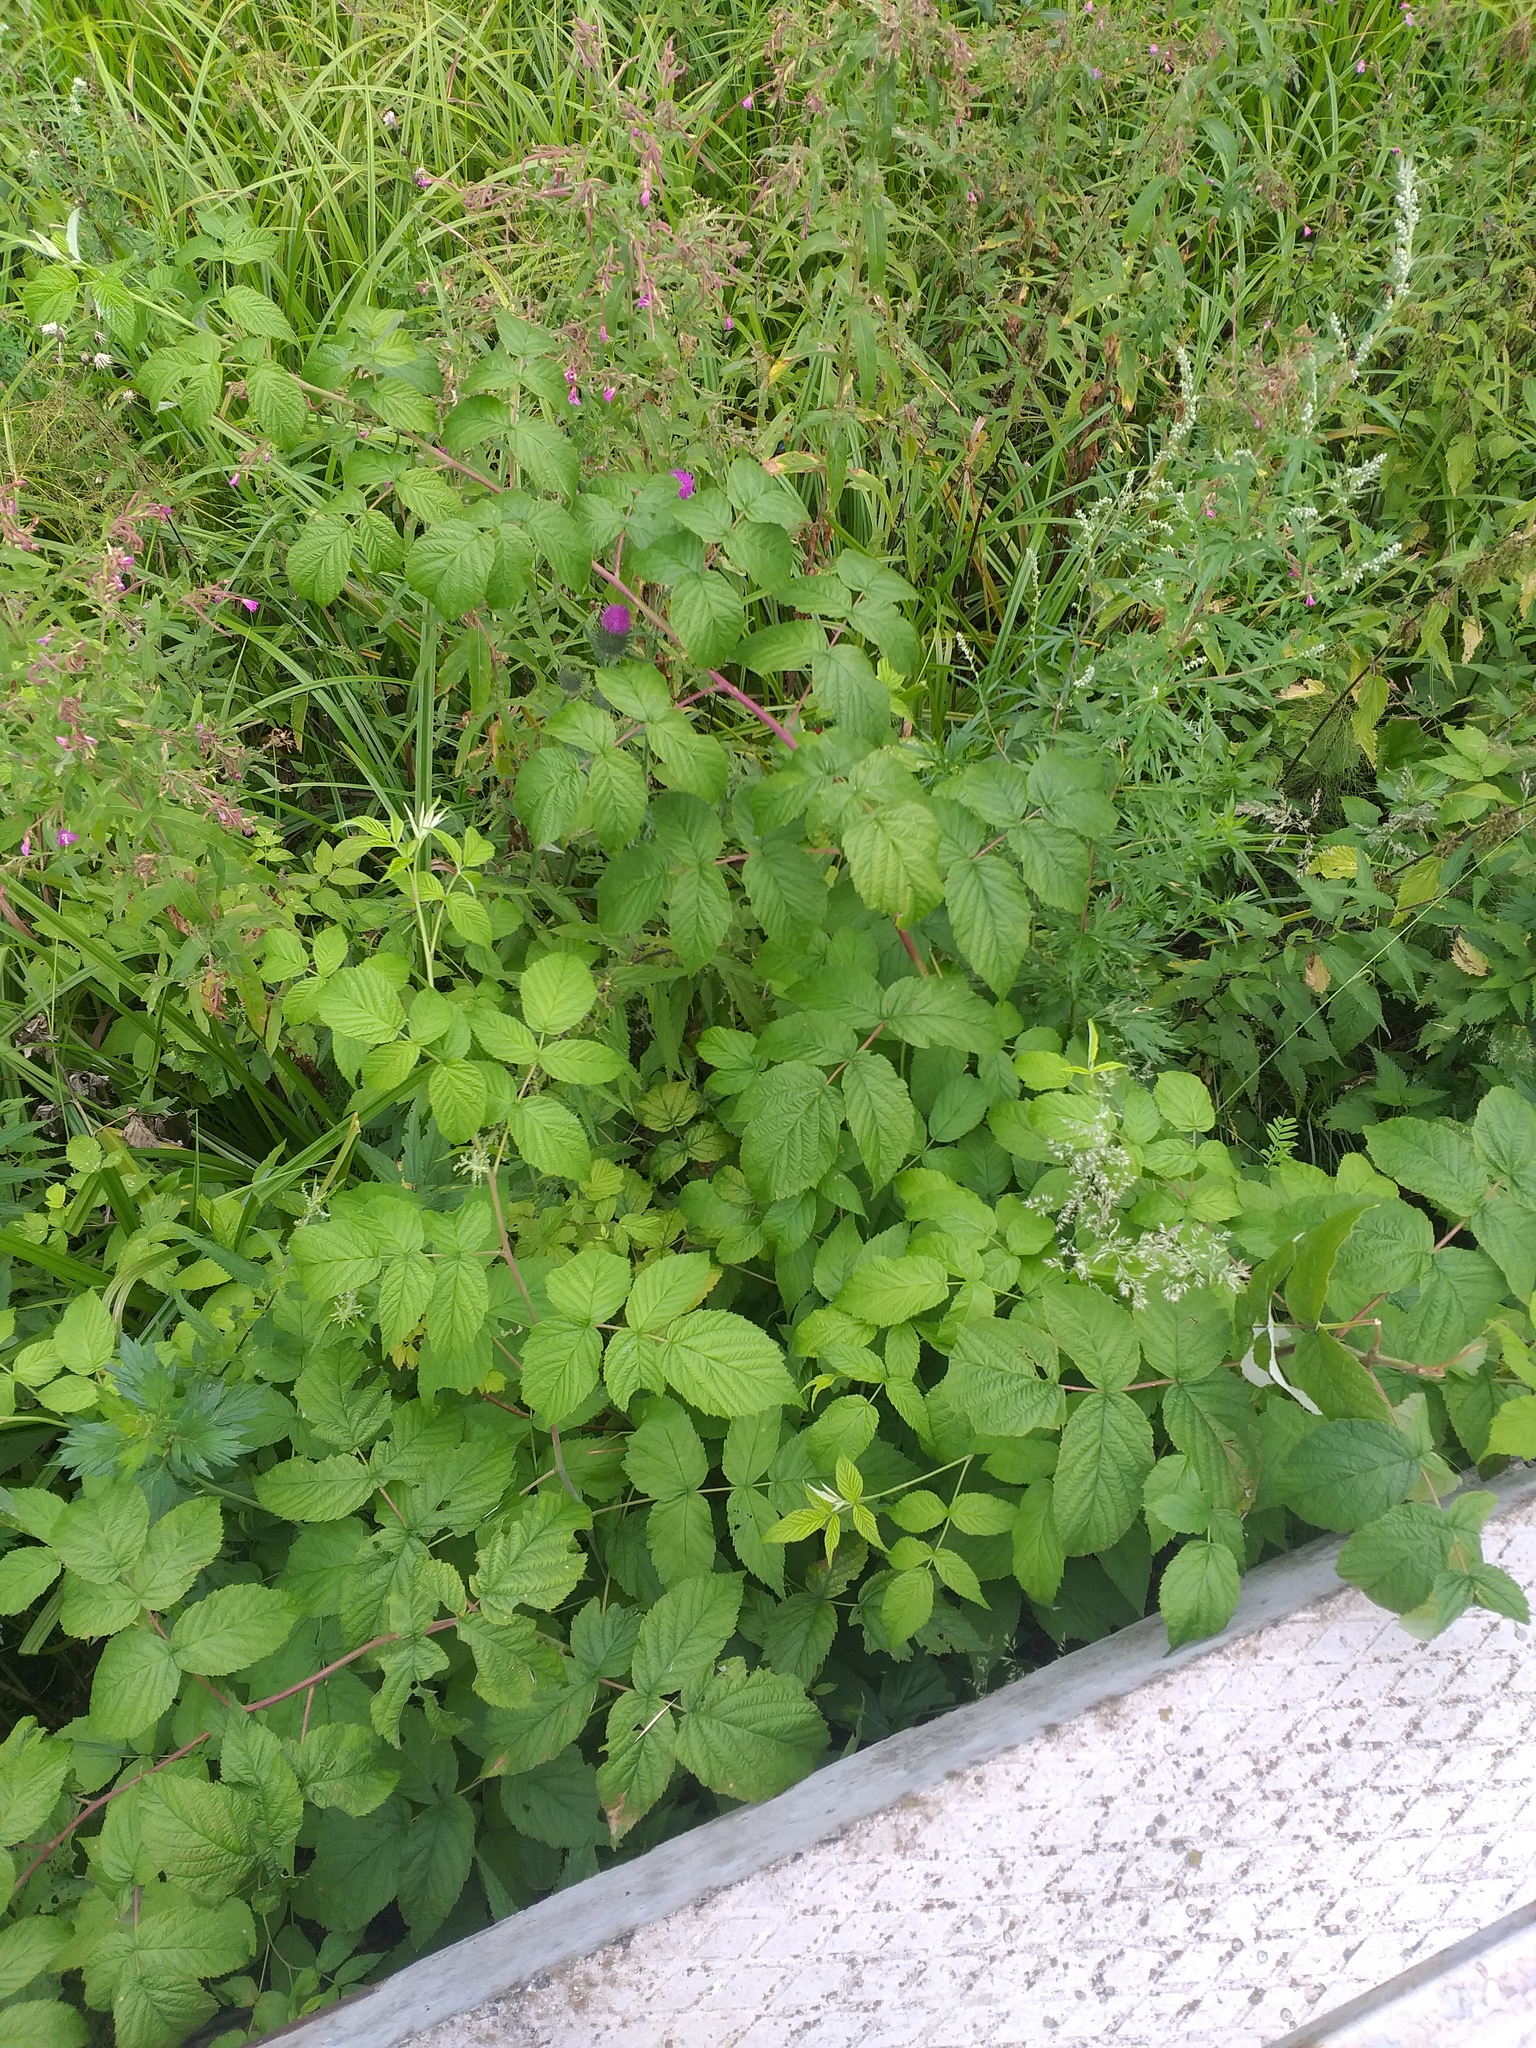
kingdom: Plantae
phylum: Tracheophyta
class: Magnoliopsida
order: Rosales
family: Rosaceae
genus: Rubus
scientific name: Rubus idaeus
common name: Raspberry
